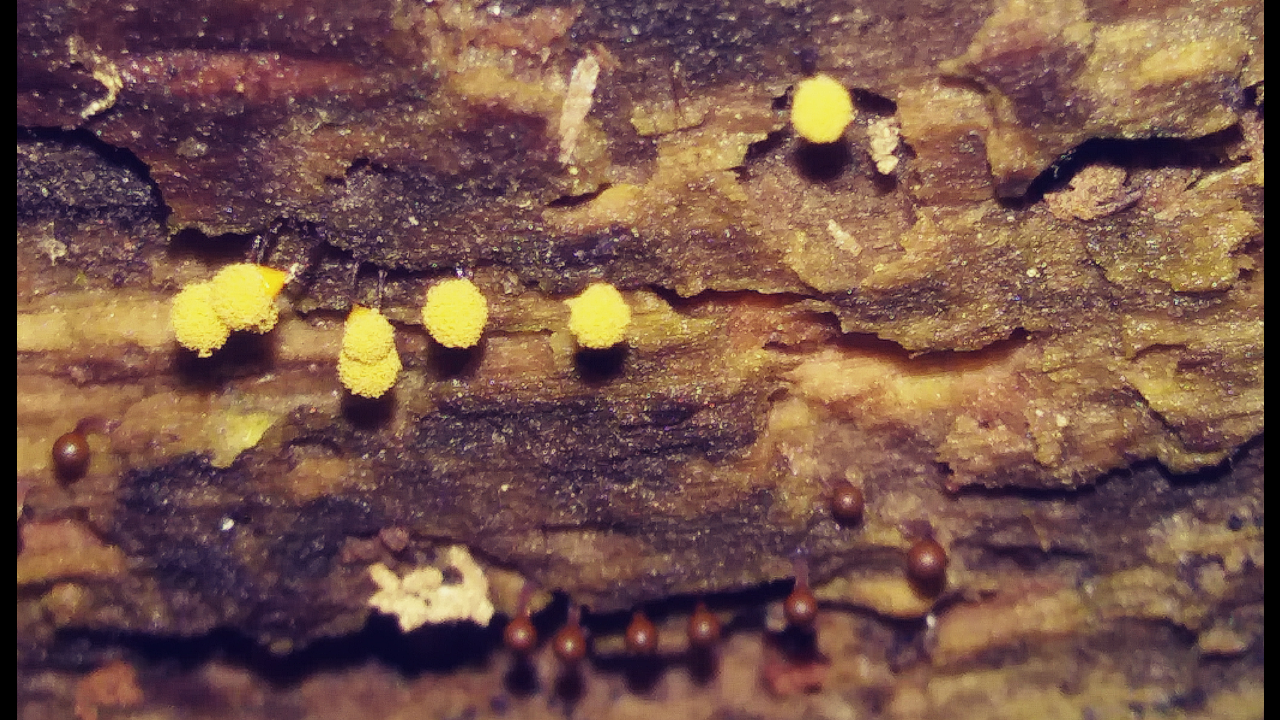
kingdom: Protozoa
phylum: Mycetozoa
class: Myxomycetes
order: Trichiales
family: Arcyriaceae
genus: Hemitrichia
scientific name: Hemitrichia calyculata
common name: Push pin slime mold
